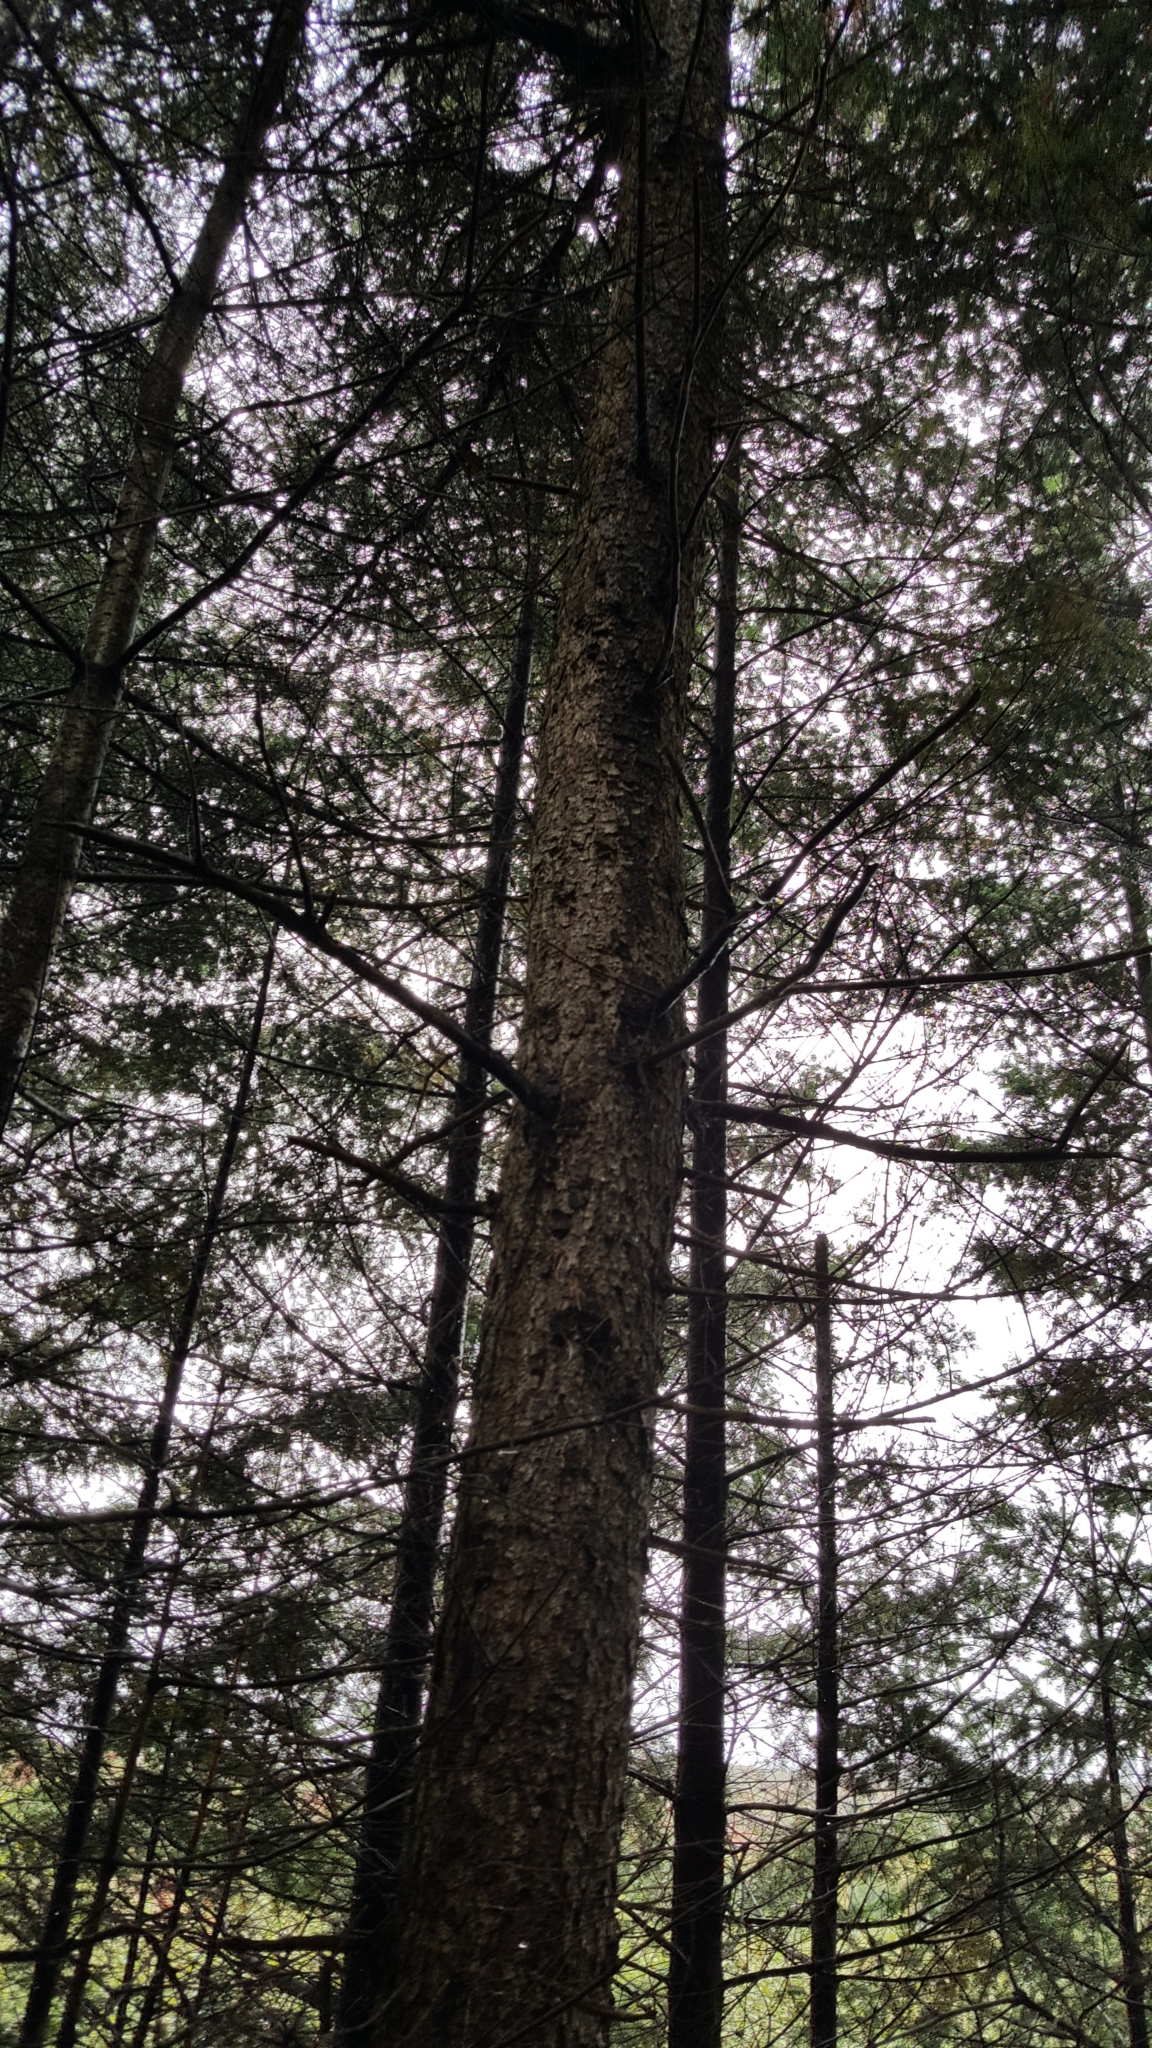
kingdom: Plantae
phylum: Tracheophyta
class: Pinopsida
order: Pinales
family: Pinaceae
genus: Picea
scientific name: Picea rubens
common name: Red spruce
